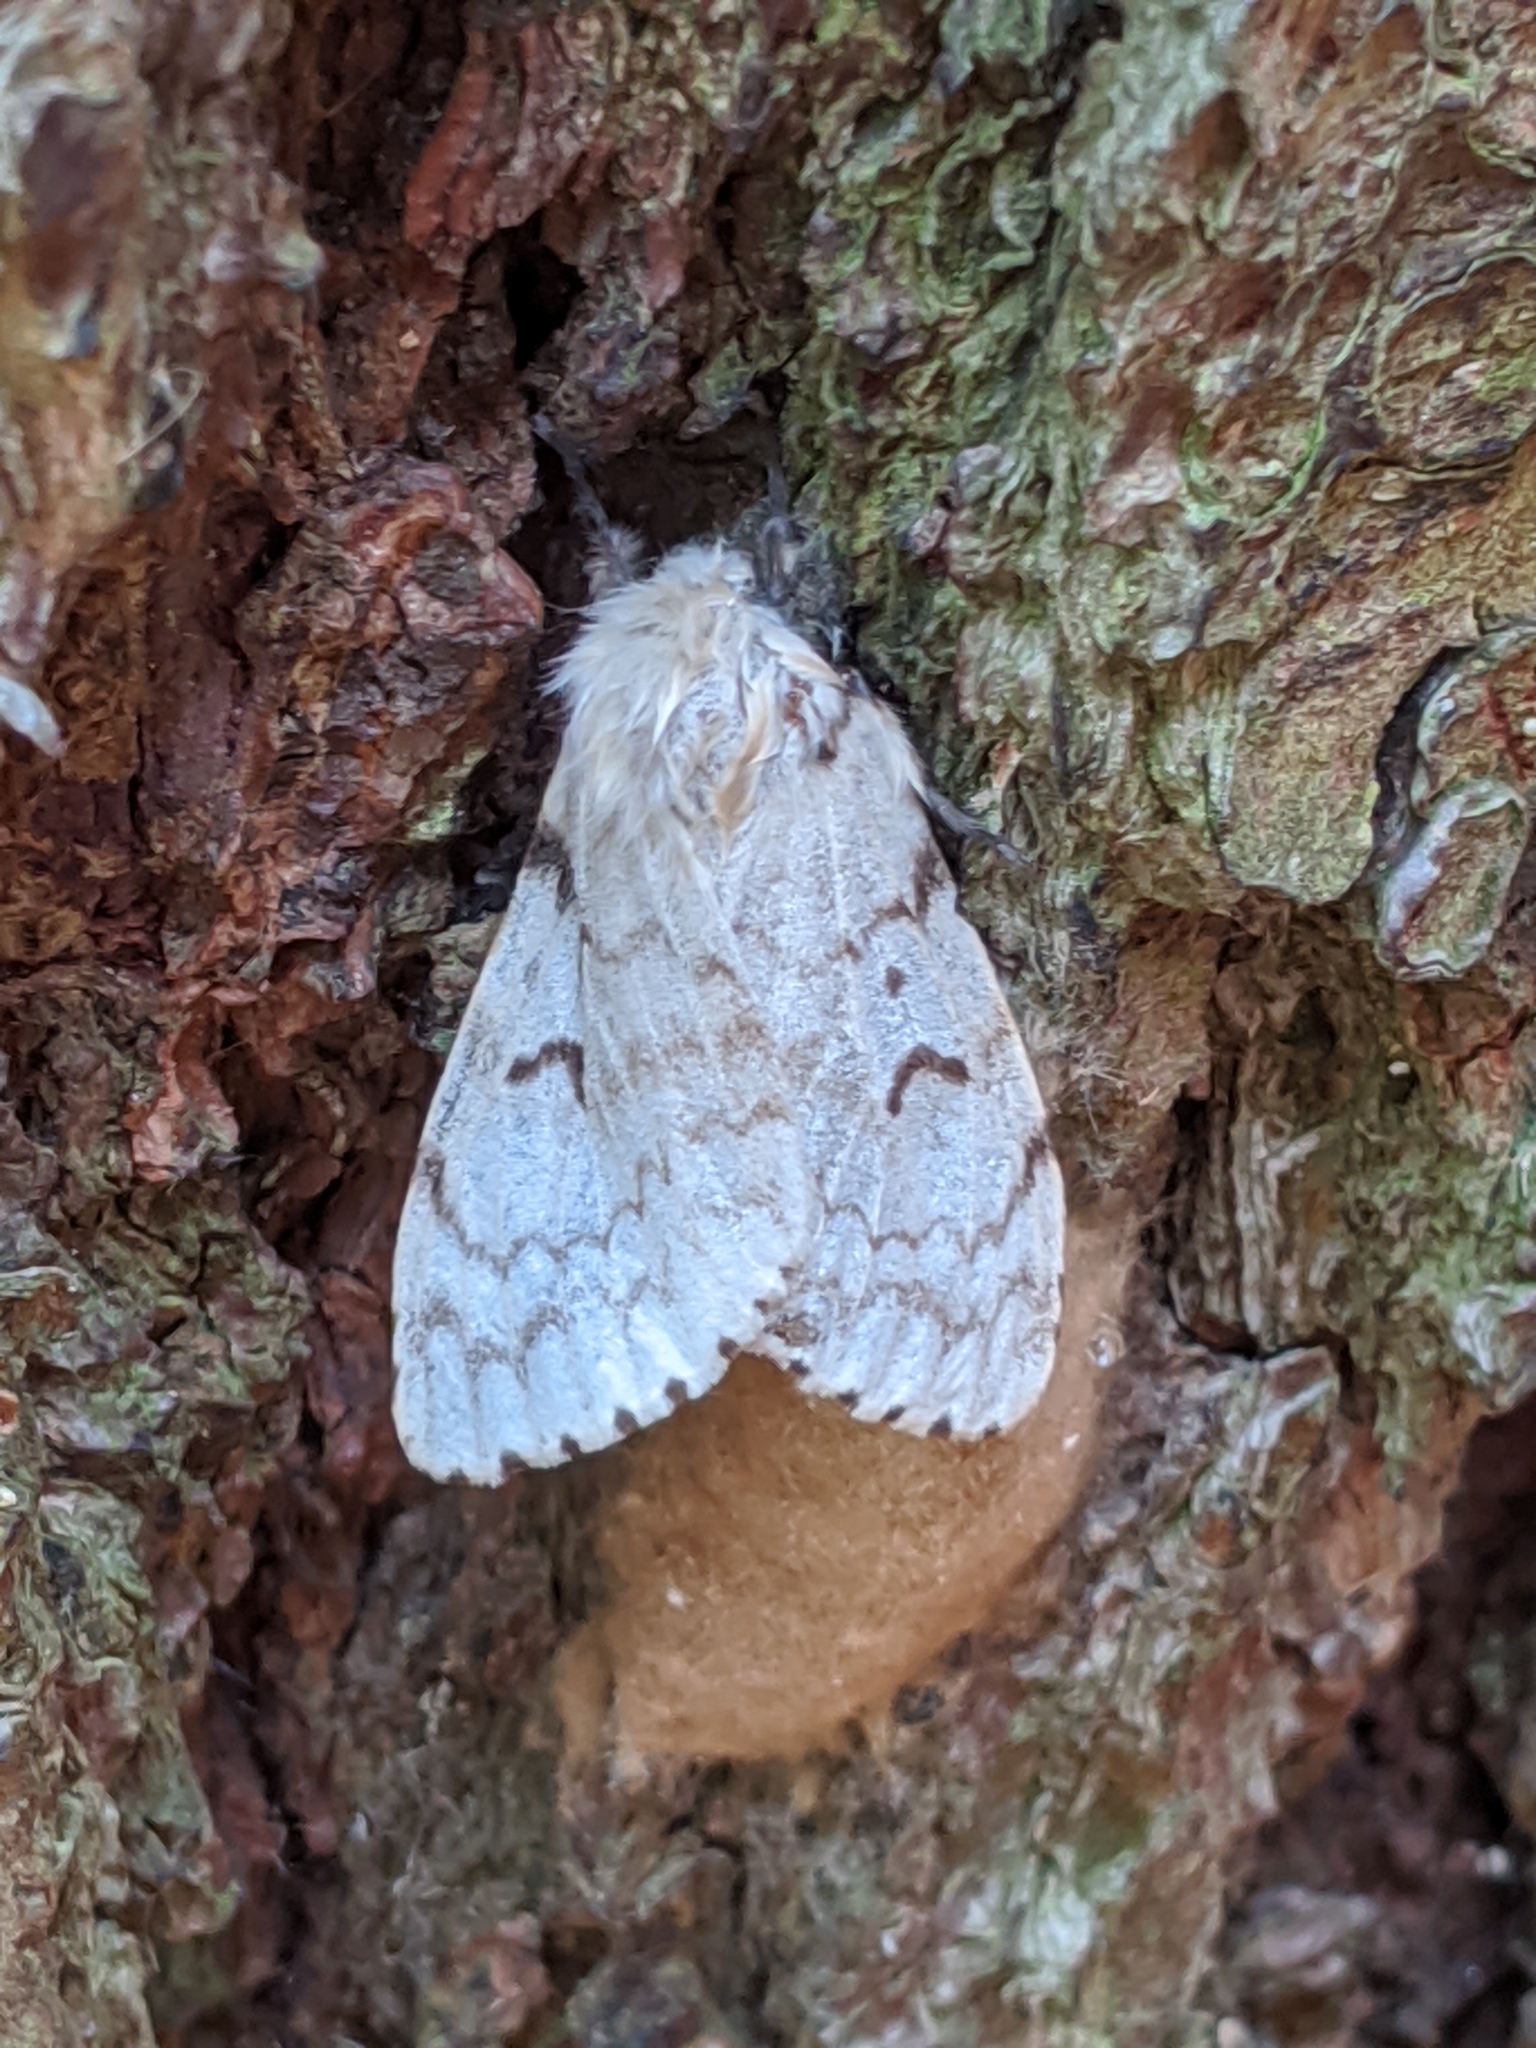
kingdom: Animalia
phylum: Arthropoda
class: Insecta
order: Lepidoptera
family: Erebidae
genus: Lymantria
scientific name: Lymantria dispar
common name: Gypsy moth
